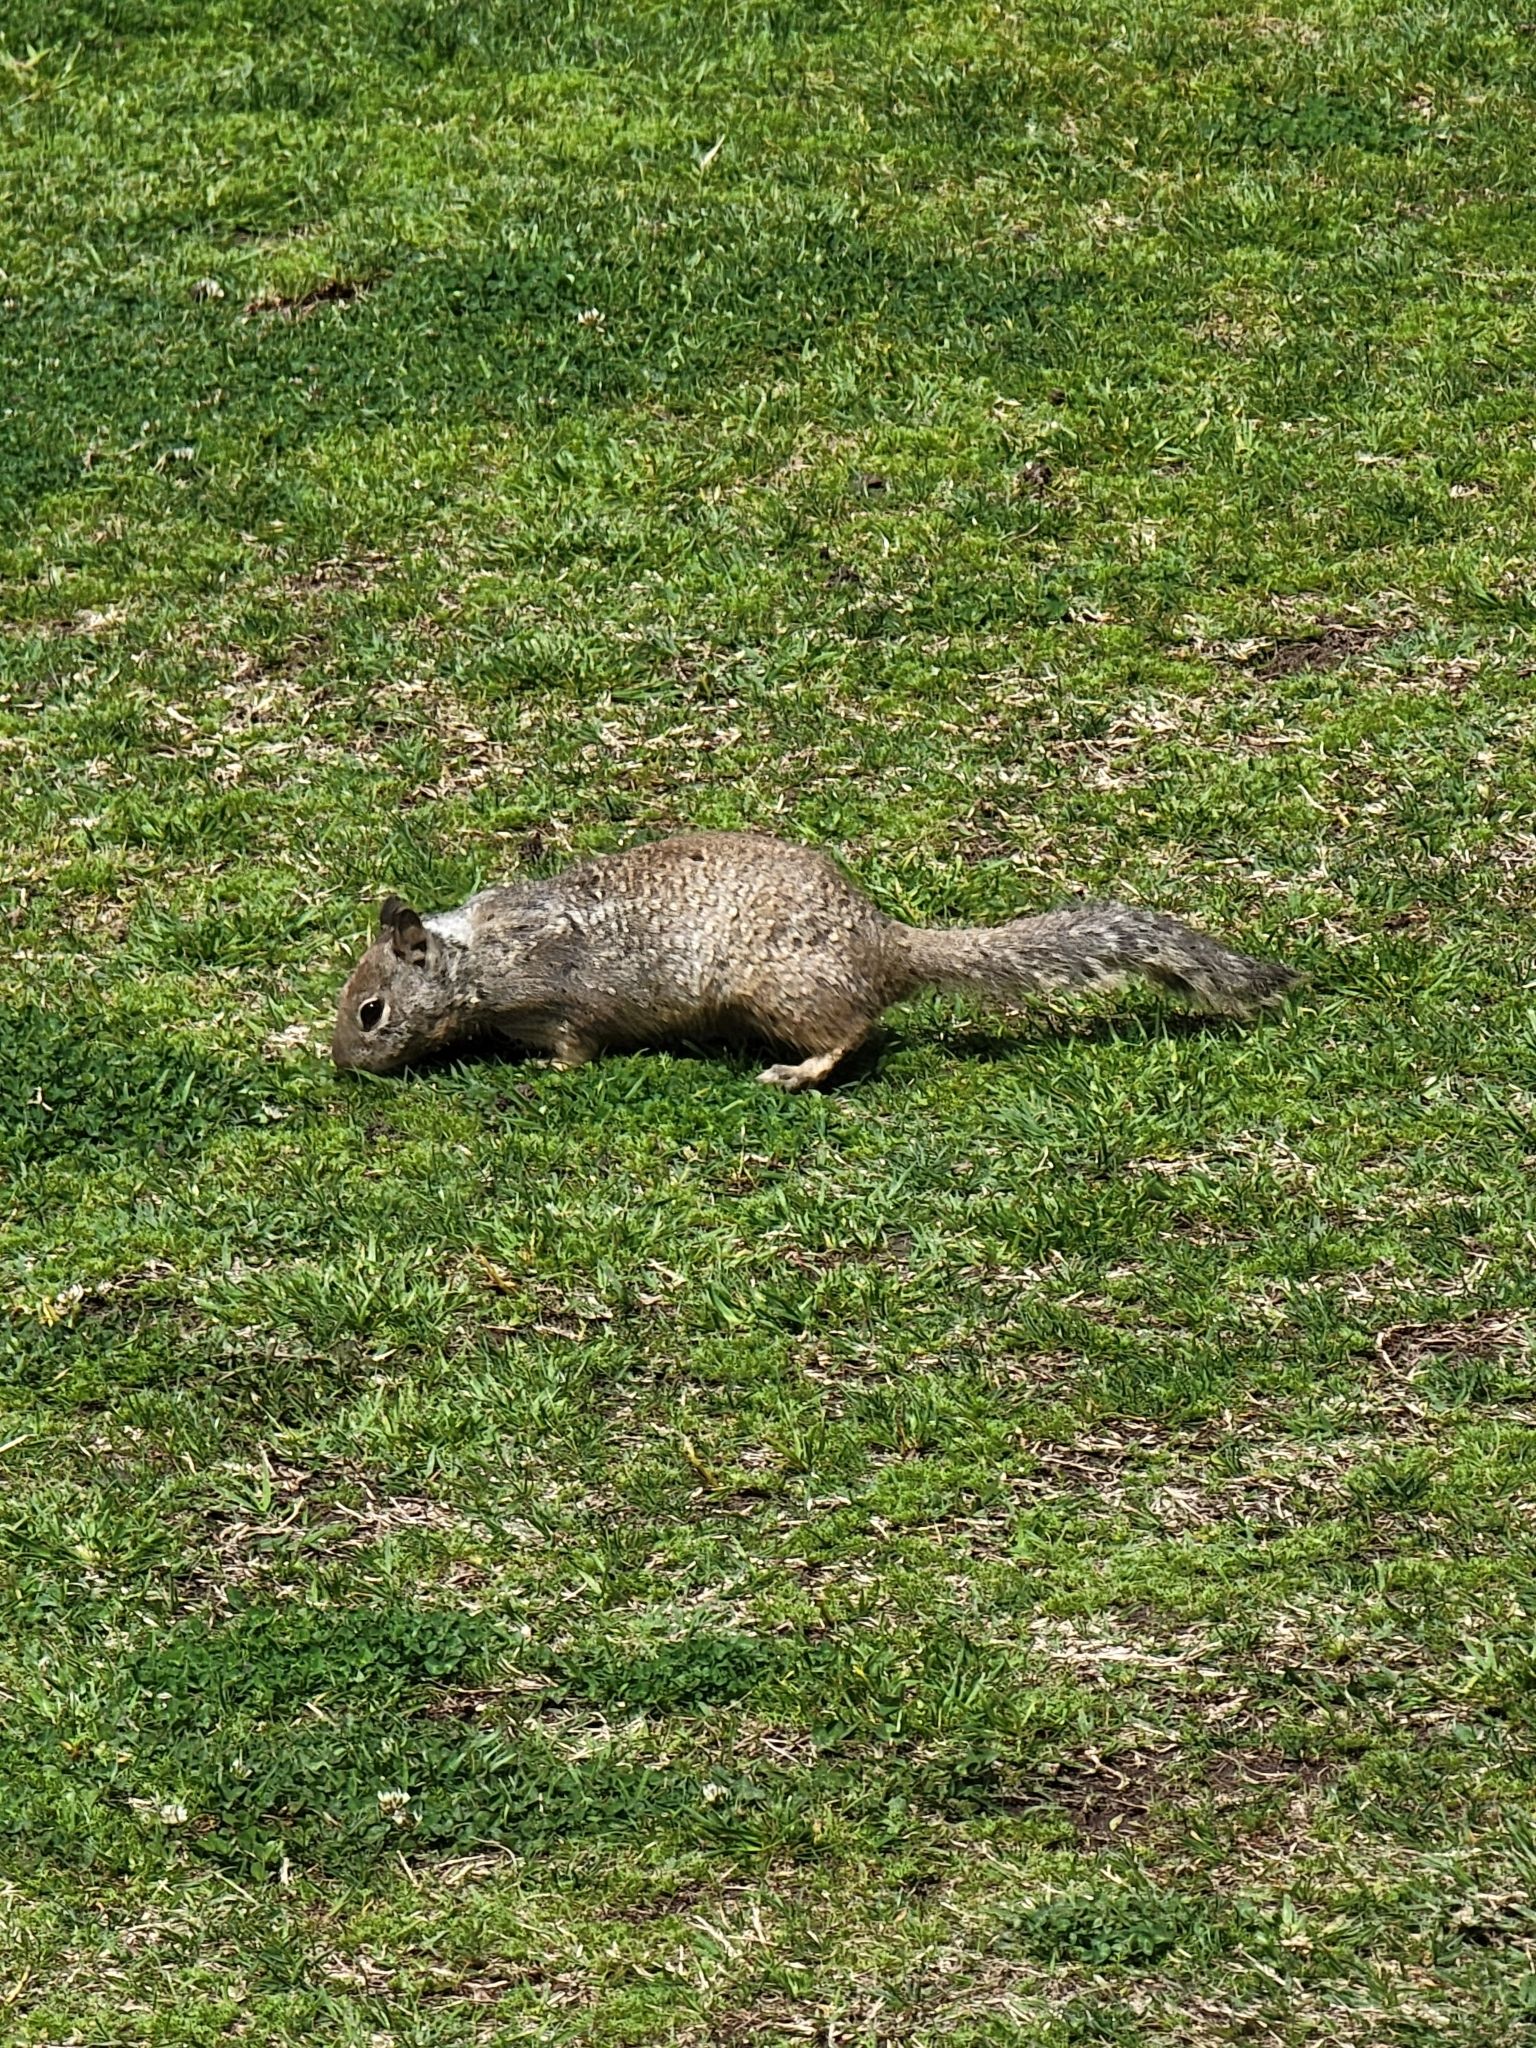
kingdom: Animalia
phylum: Chordata
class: Mammalia
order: Rodentia
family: Sciuridae
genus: Otospermophilus
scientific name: Otospermophilus beecheyi
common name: California ground squirrel
